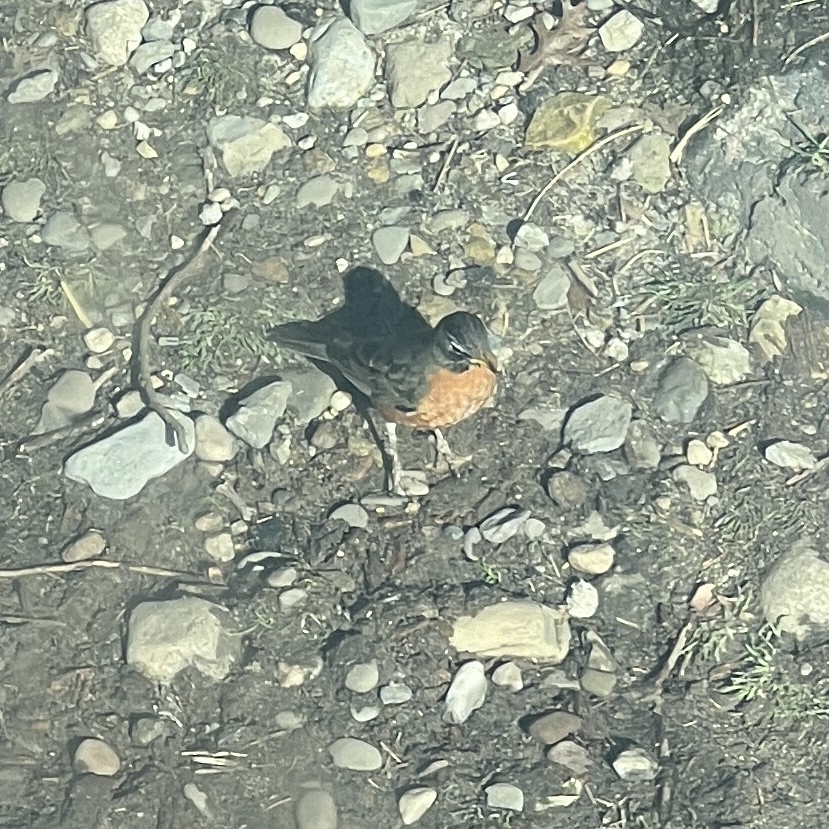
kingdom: Animalia
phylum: Chordata
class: Aves
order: Passeriformes
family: Turdidae
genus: Turdus
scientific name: Turdus migratorius
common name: American robin
